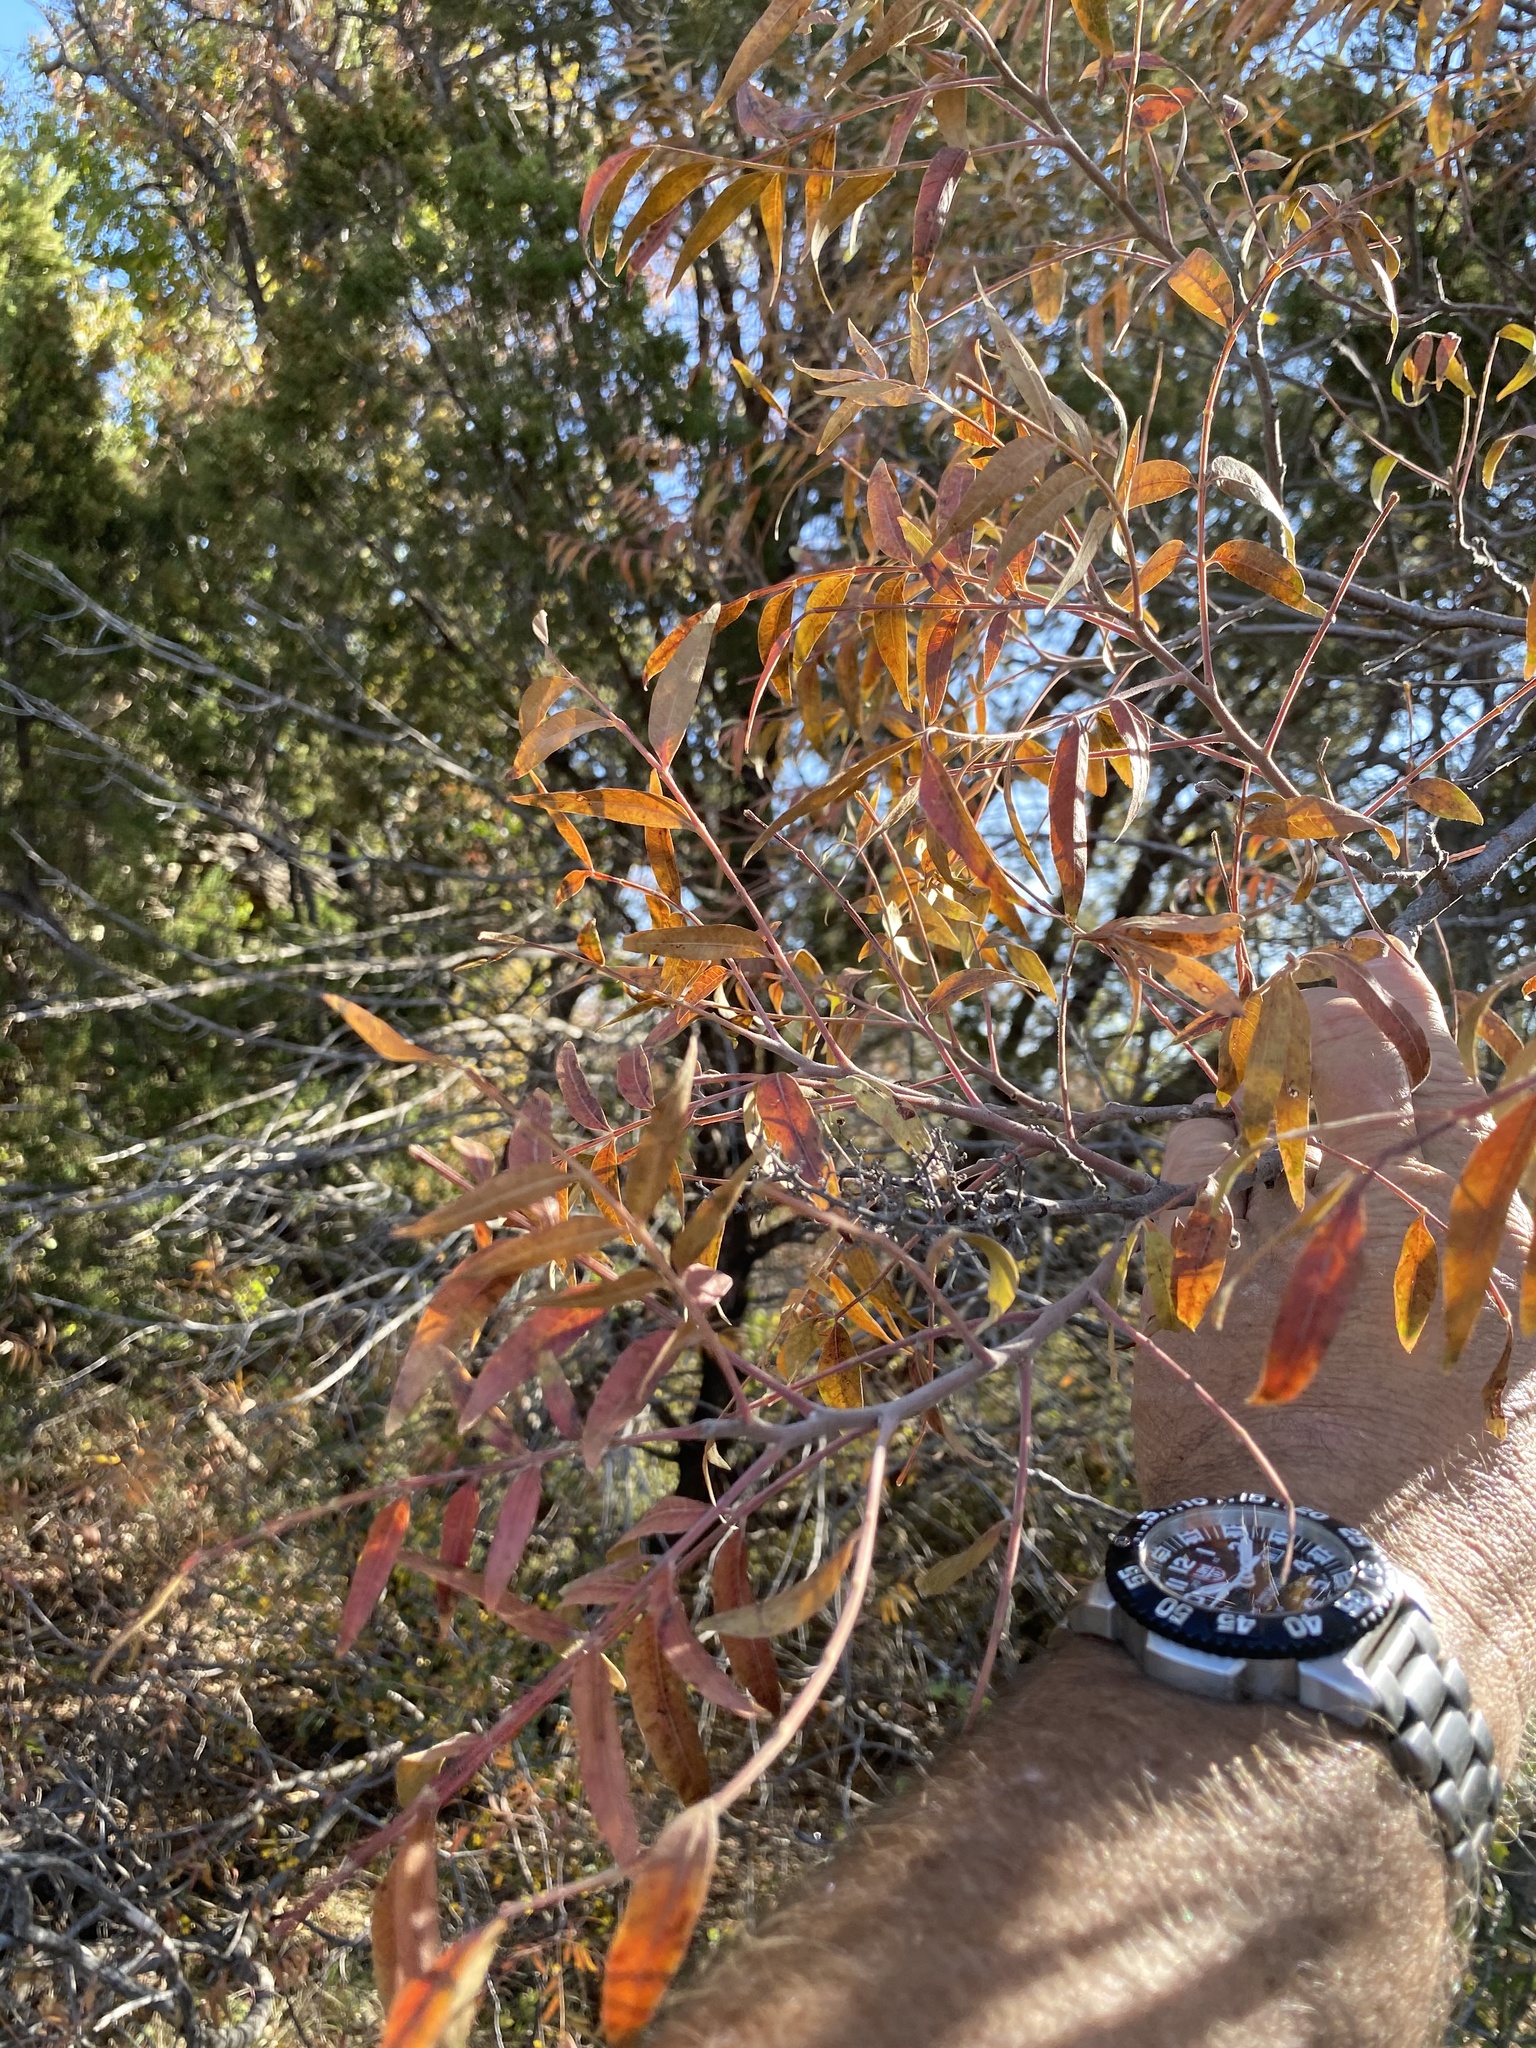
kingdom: Plantae
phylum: Tracheophyta
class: Magnoliopsida
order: Sapindales
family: Anacardiaceae
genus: Rhus
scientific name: Rhus lanceolata
